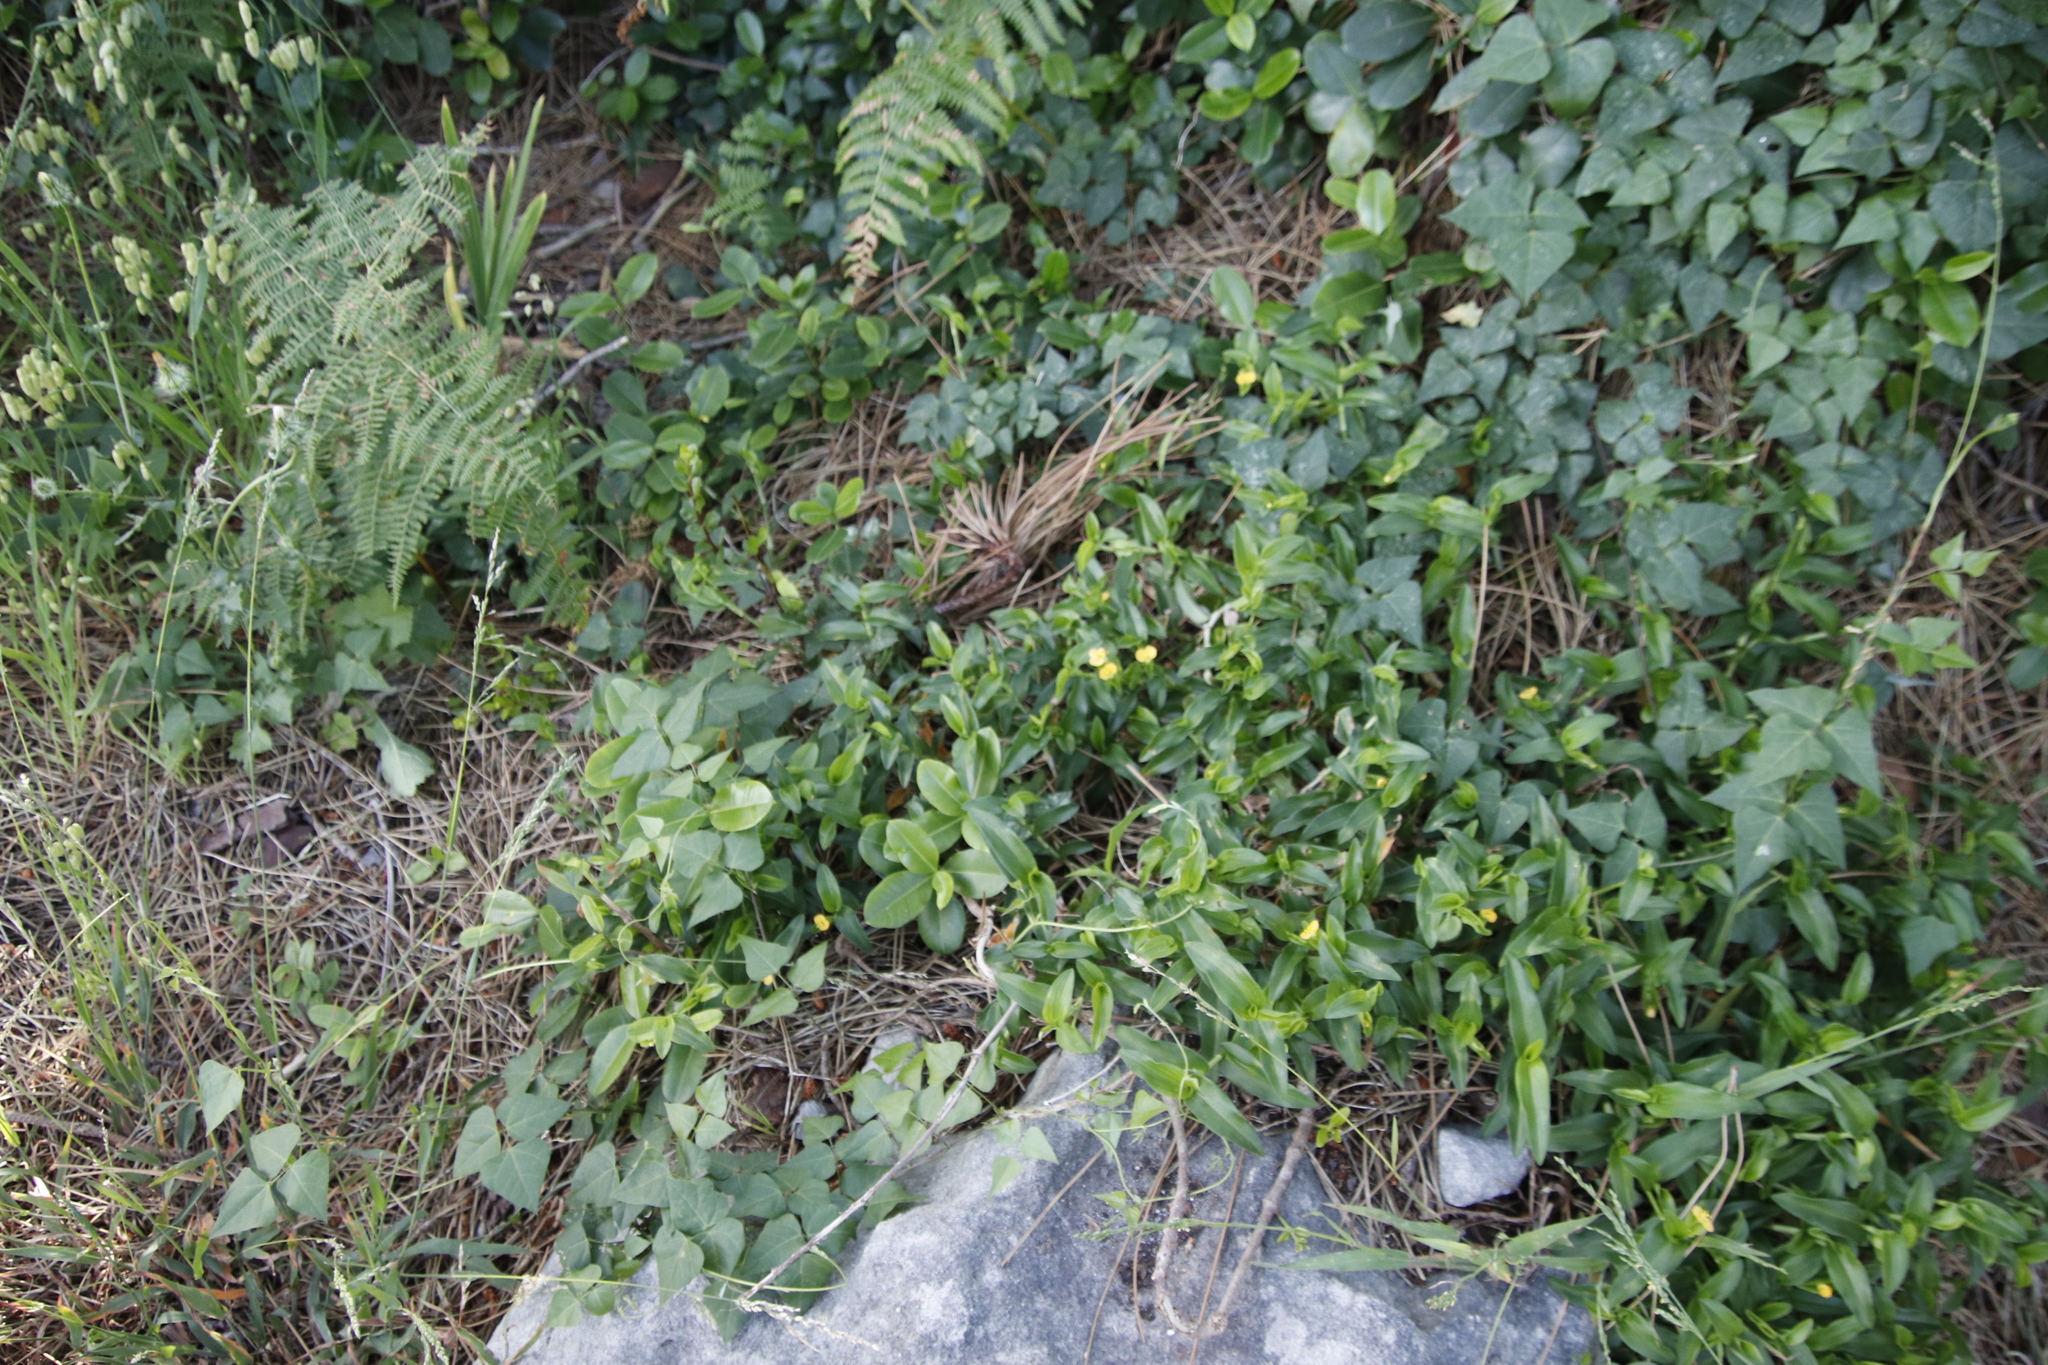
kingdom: Plantae
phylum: Tracheophyta
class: Liliopsida
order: Commelinales
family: Commelinaceae
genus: Commelina
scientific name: Commelina africana
